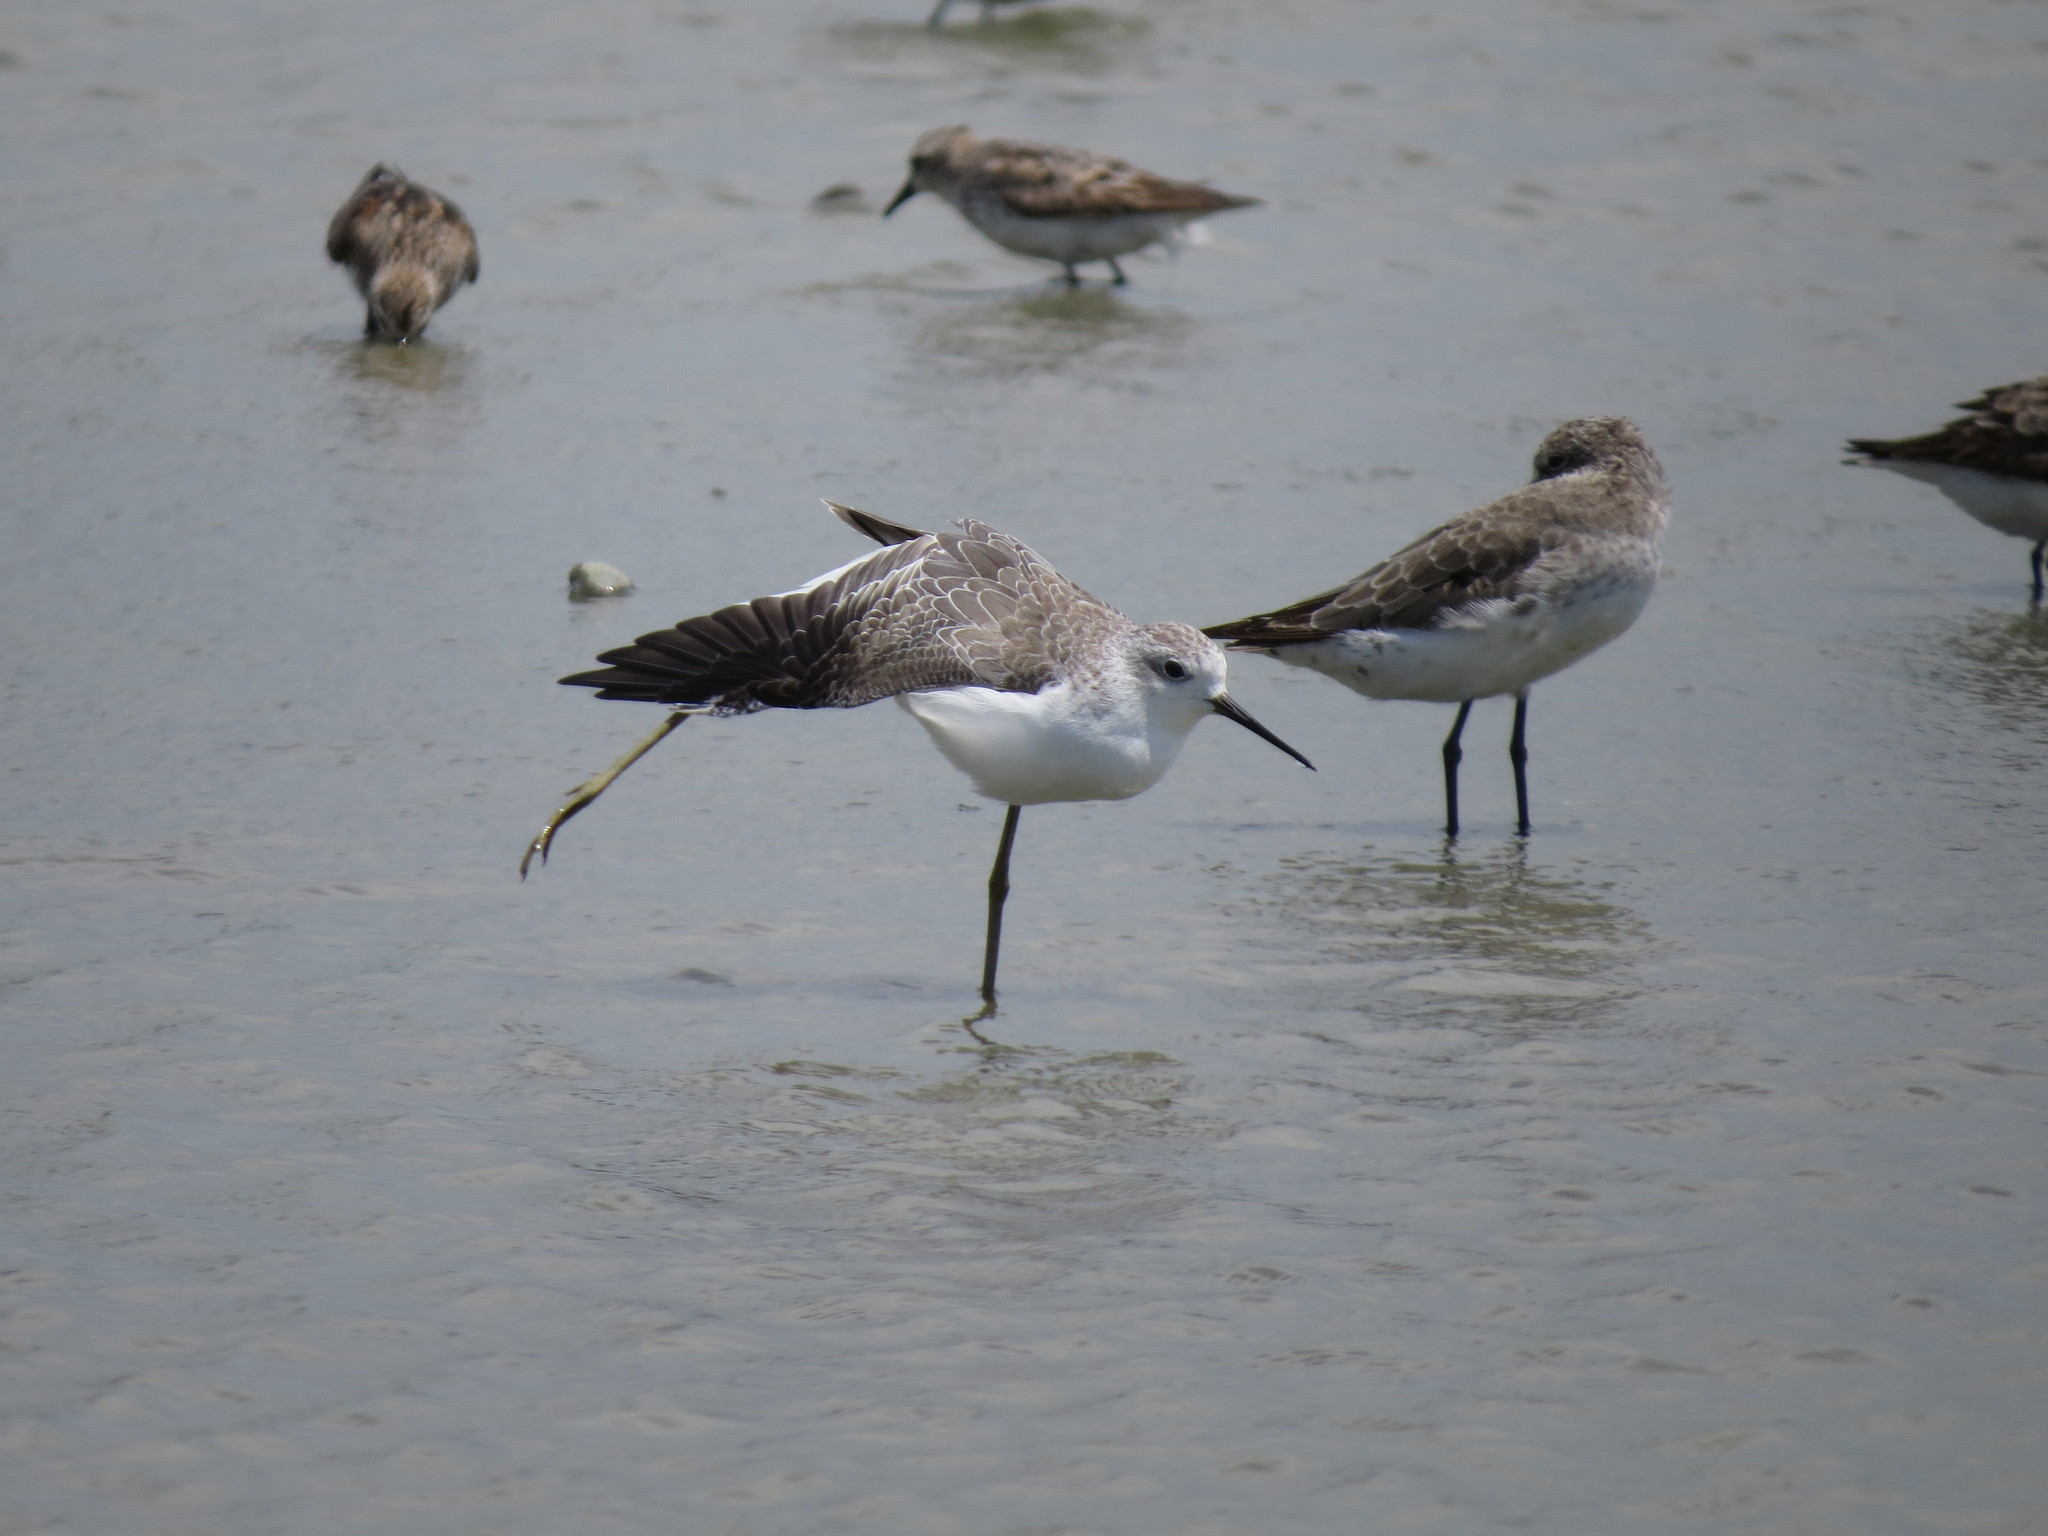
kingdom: Animalia
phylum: Chordata
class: Aves
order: Charadriiformes
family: Scolopacidae
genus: Tringa
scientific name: Tringa stagnatilis
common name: Marsh sandpiper
